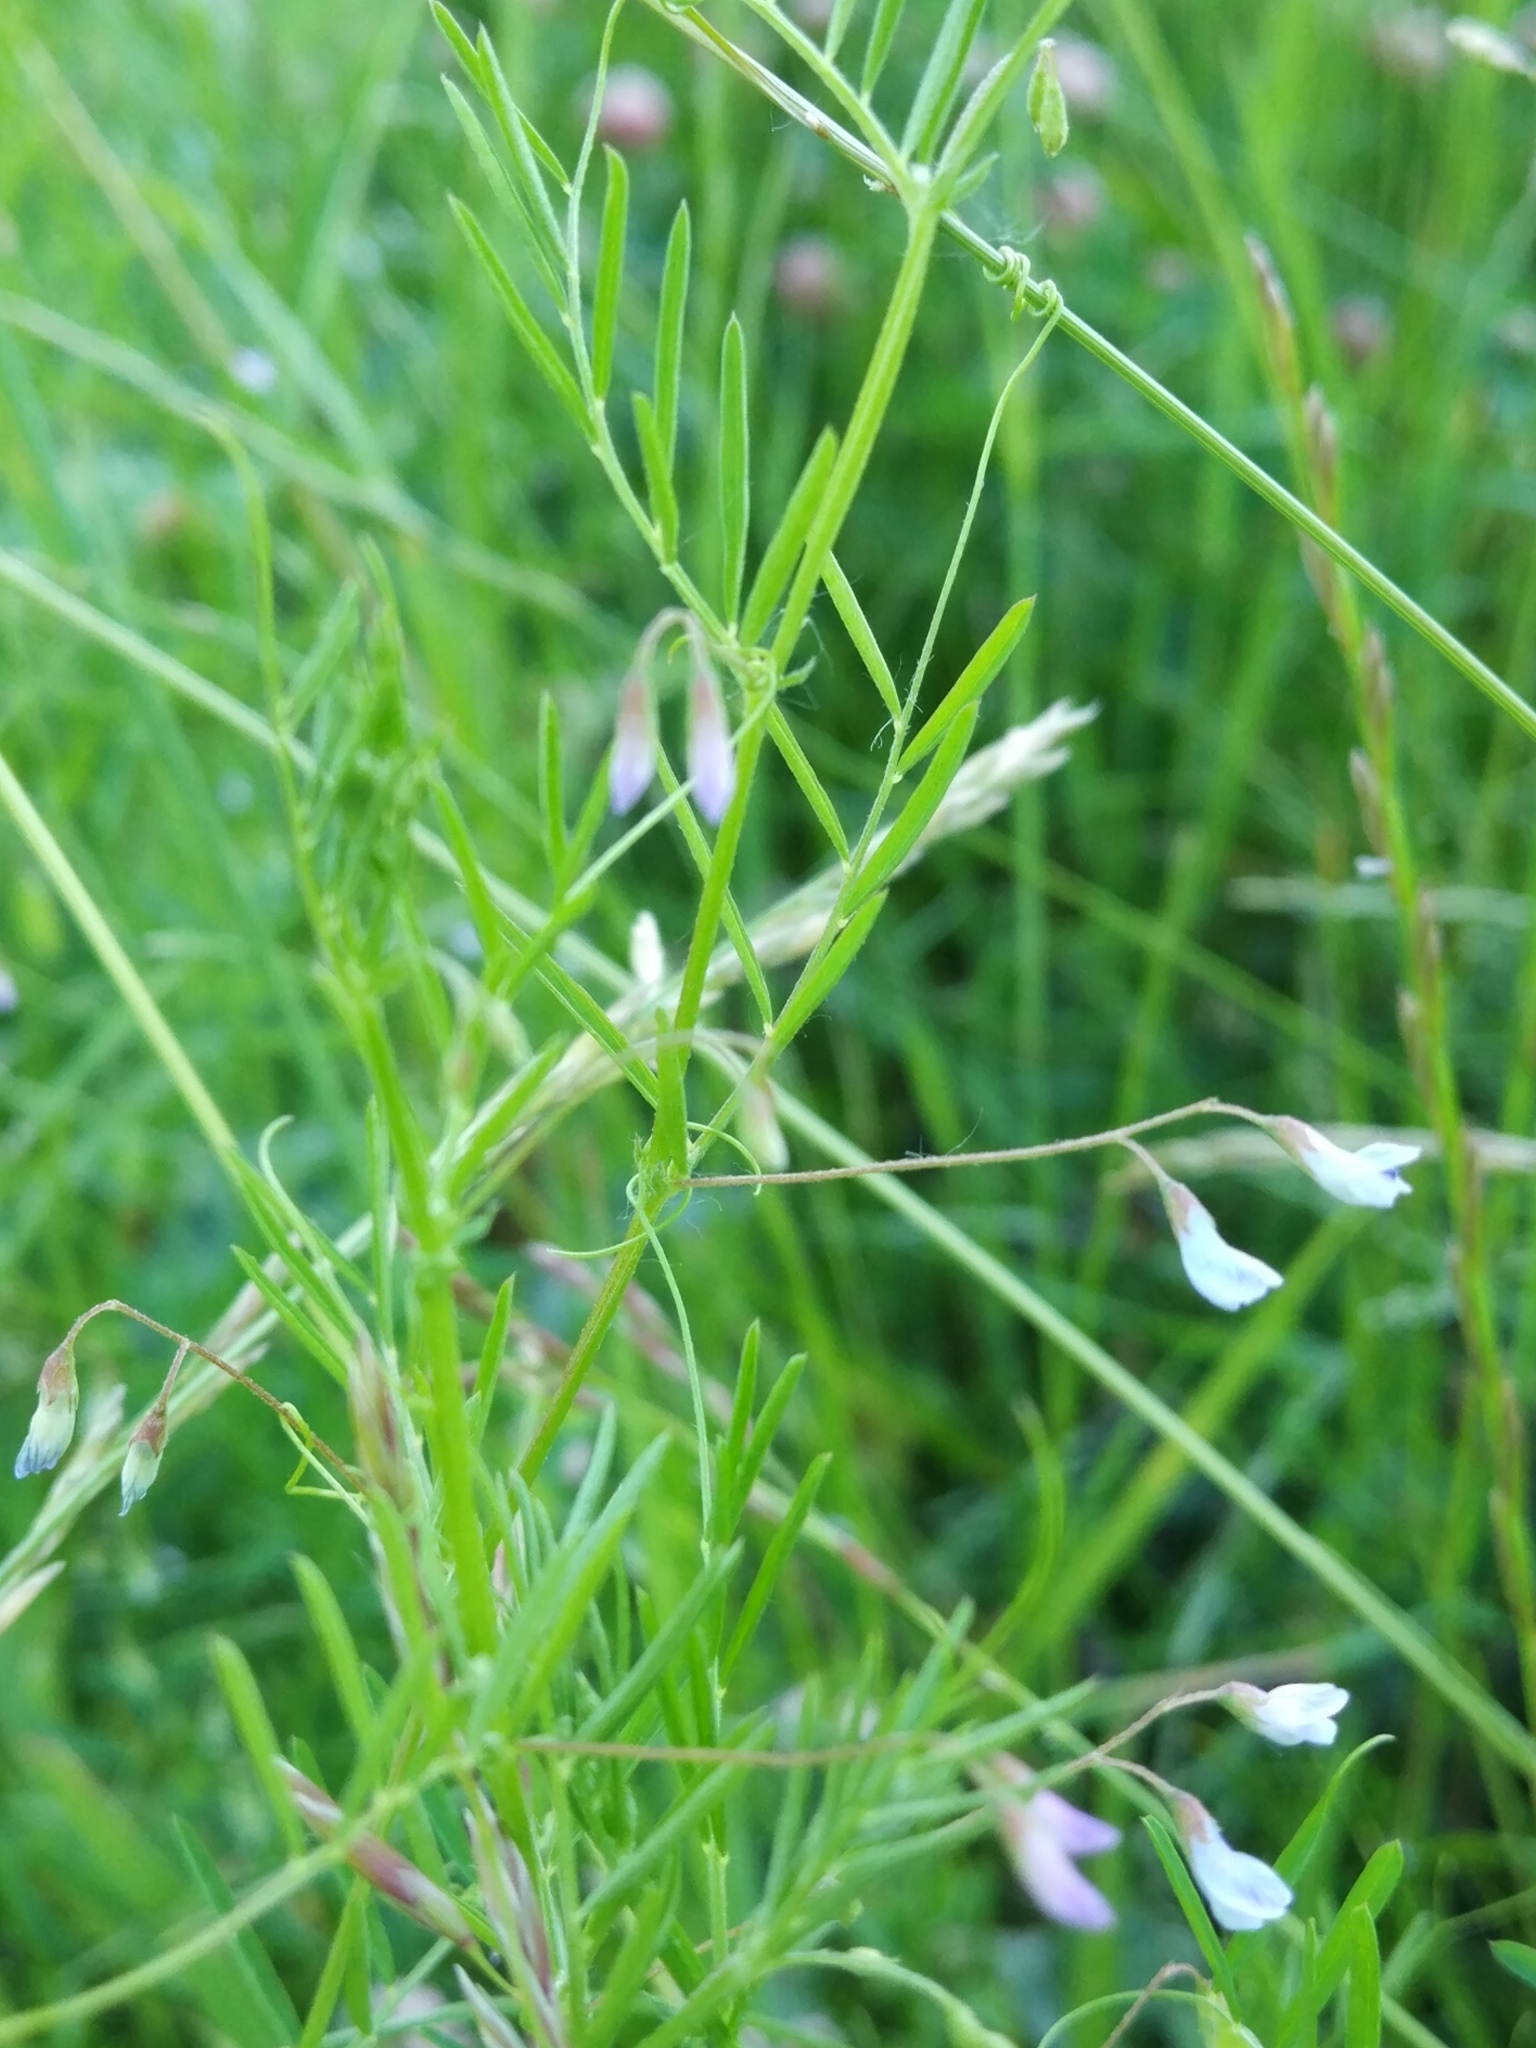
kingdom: Plantae
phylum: Tracheophyta
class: Magnoliopsida
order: Fabales
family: Fabaceae
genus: Vicia
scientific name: Vicia tetrasperma
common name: Smooth tare
